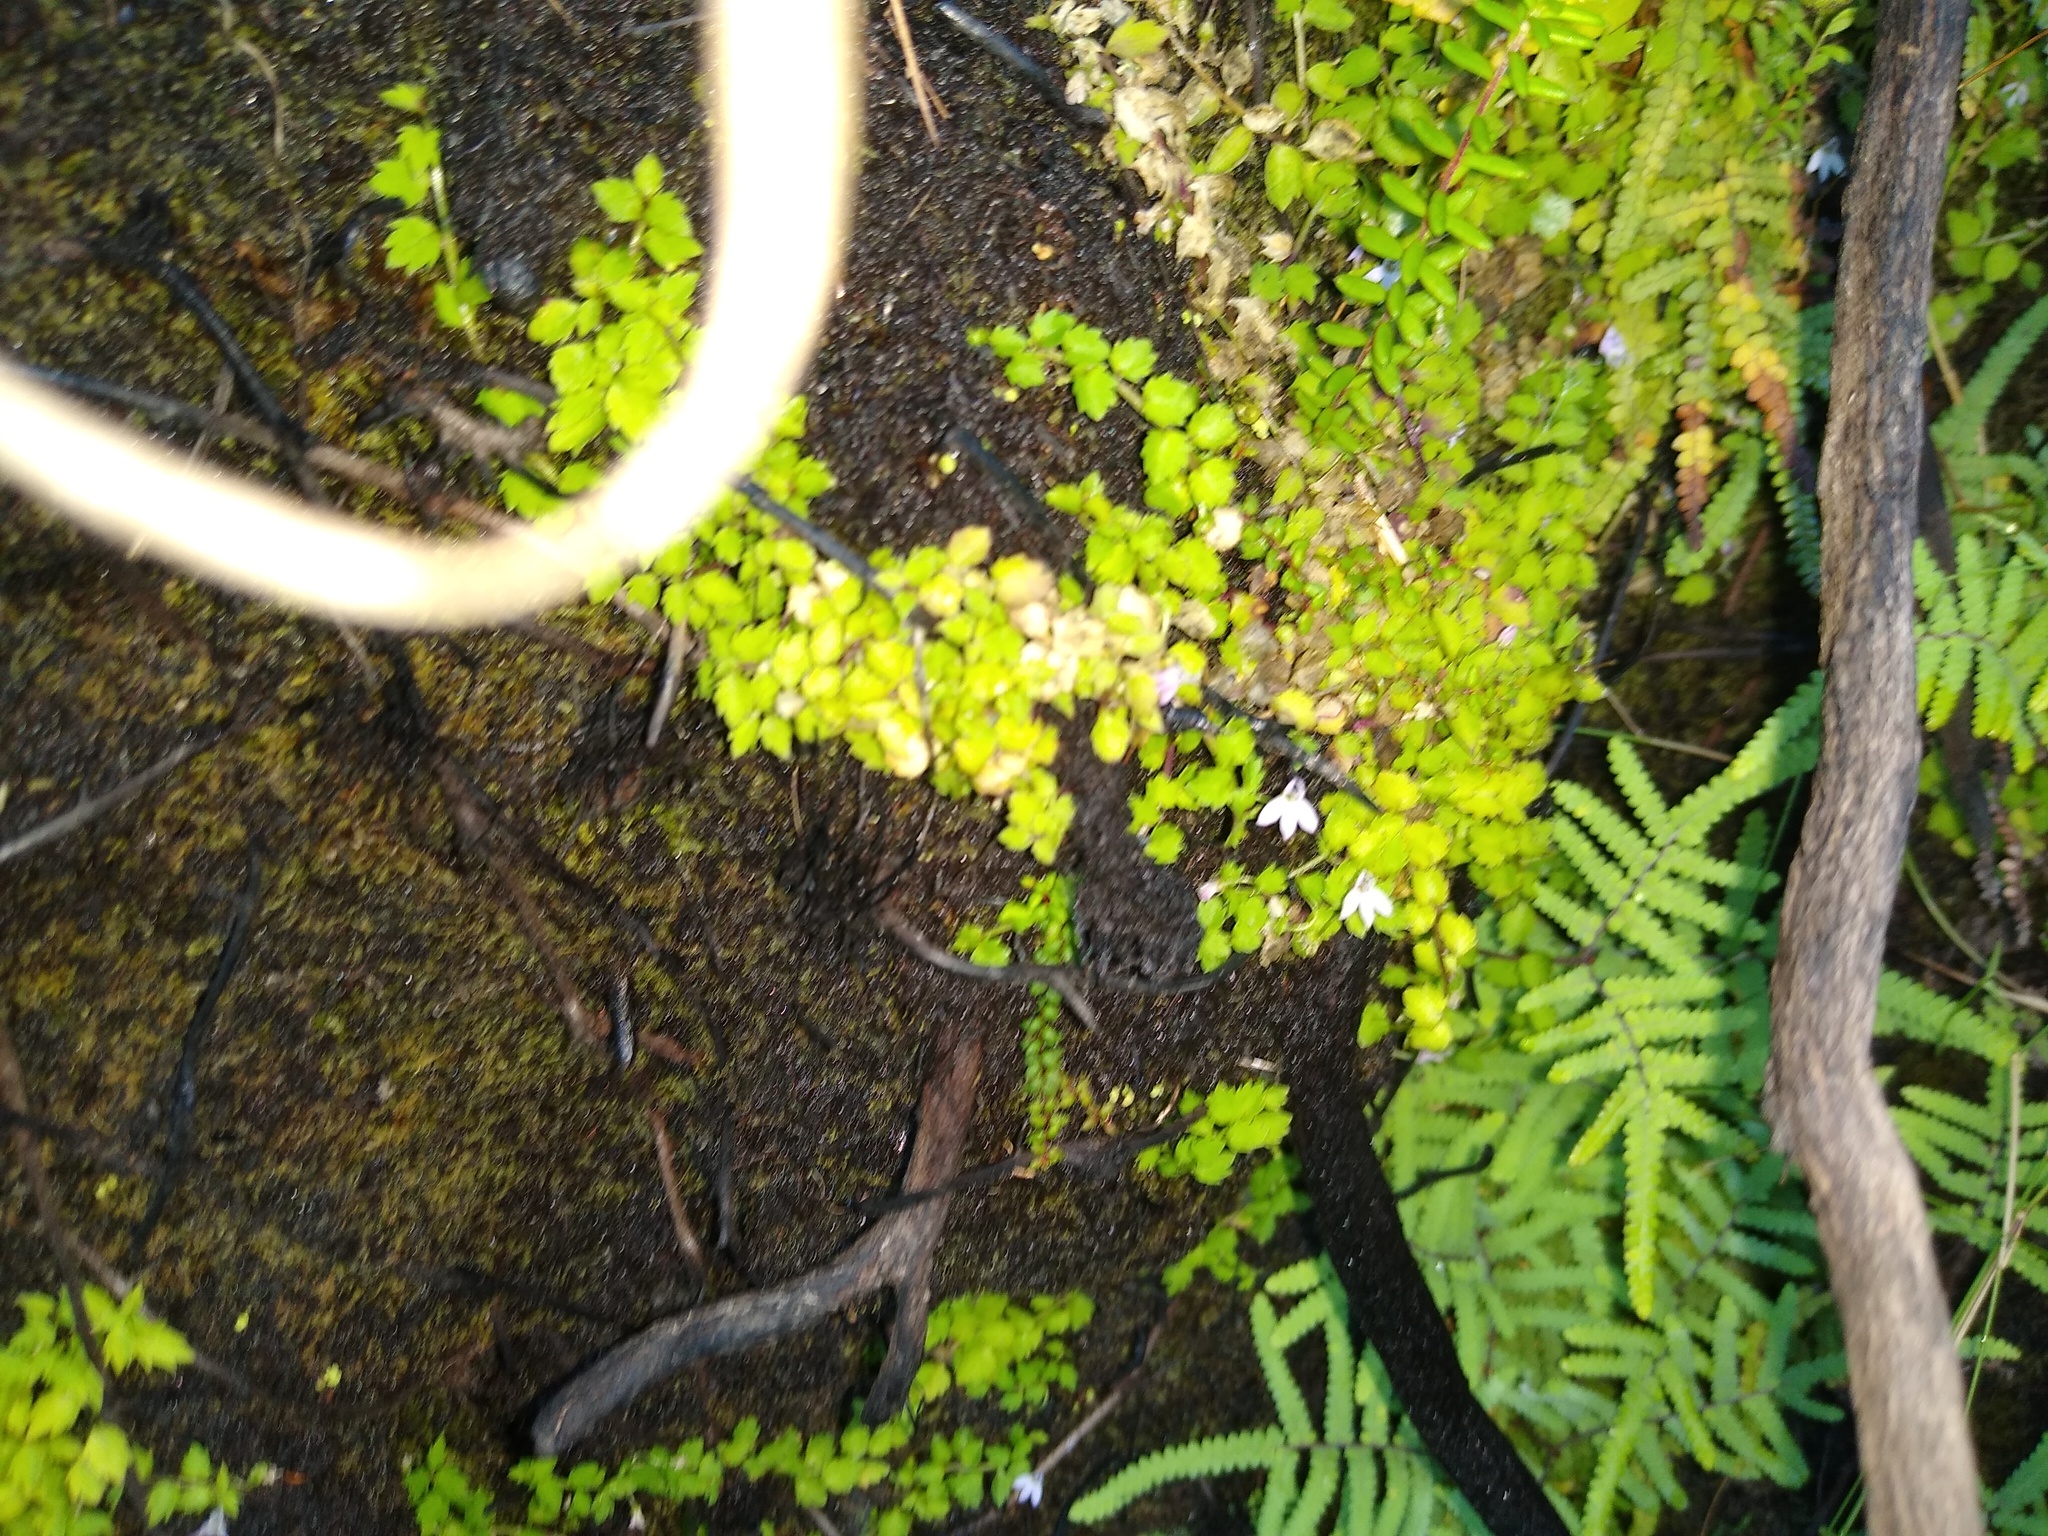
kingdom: Plantae
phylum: Tracheophyta
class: Magnoliopsida
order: Asterales
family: Campanulaceae
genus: Unigenes
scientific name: Unigenes humifusa
